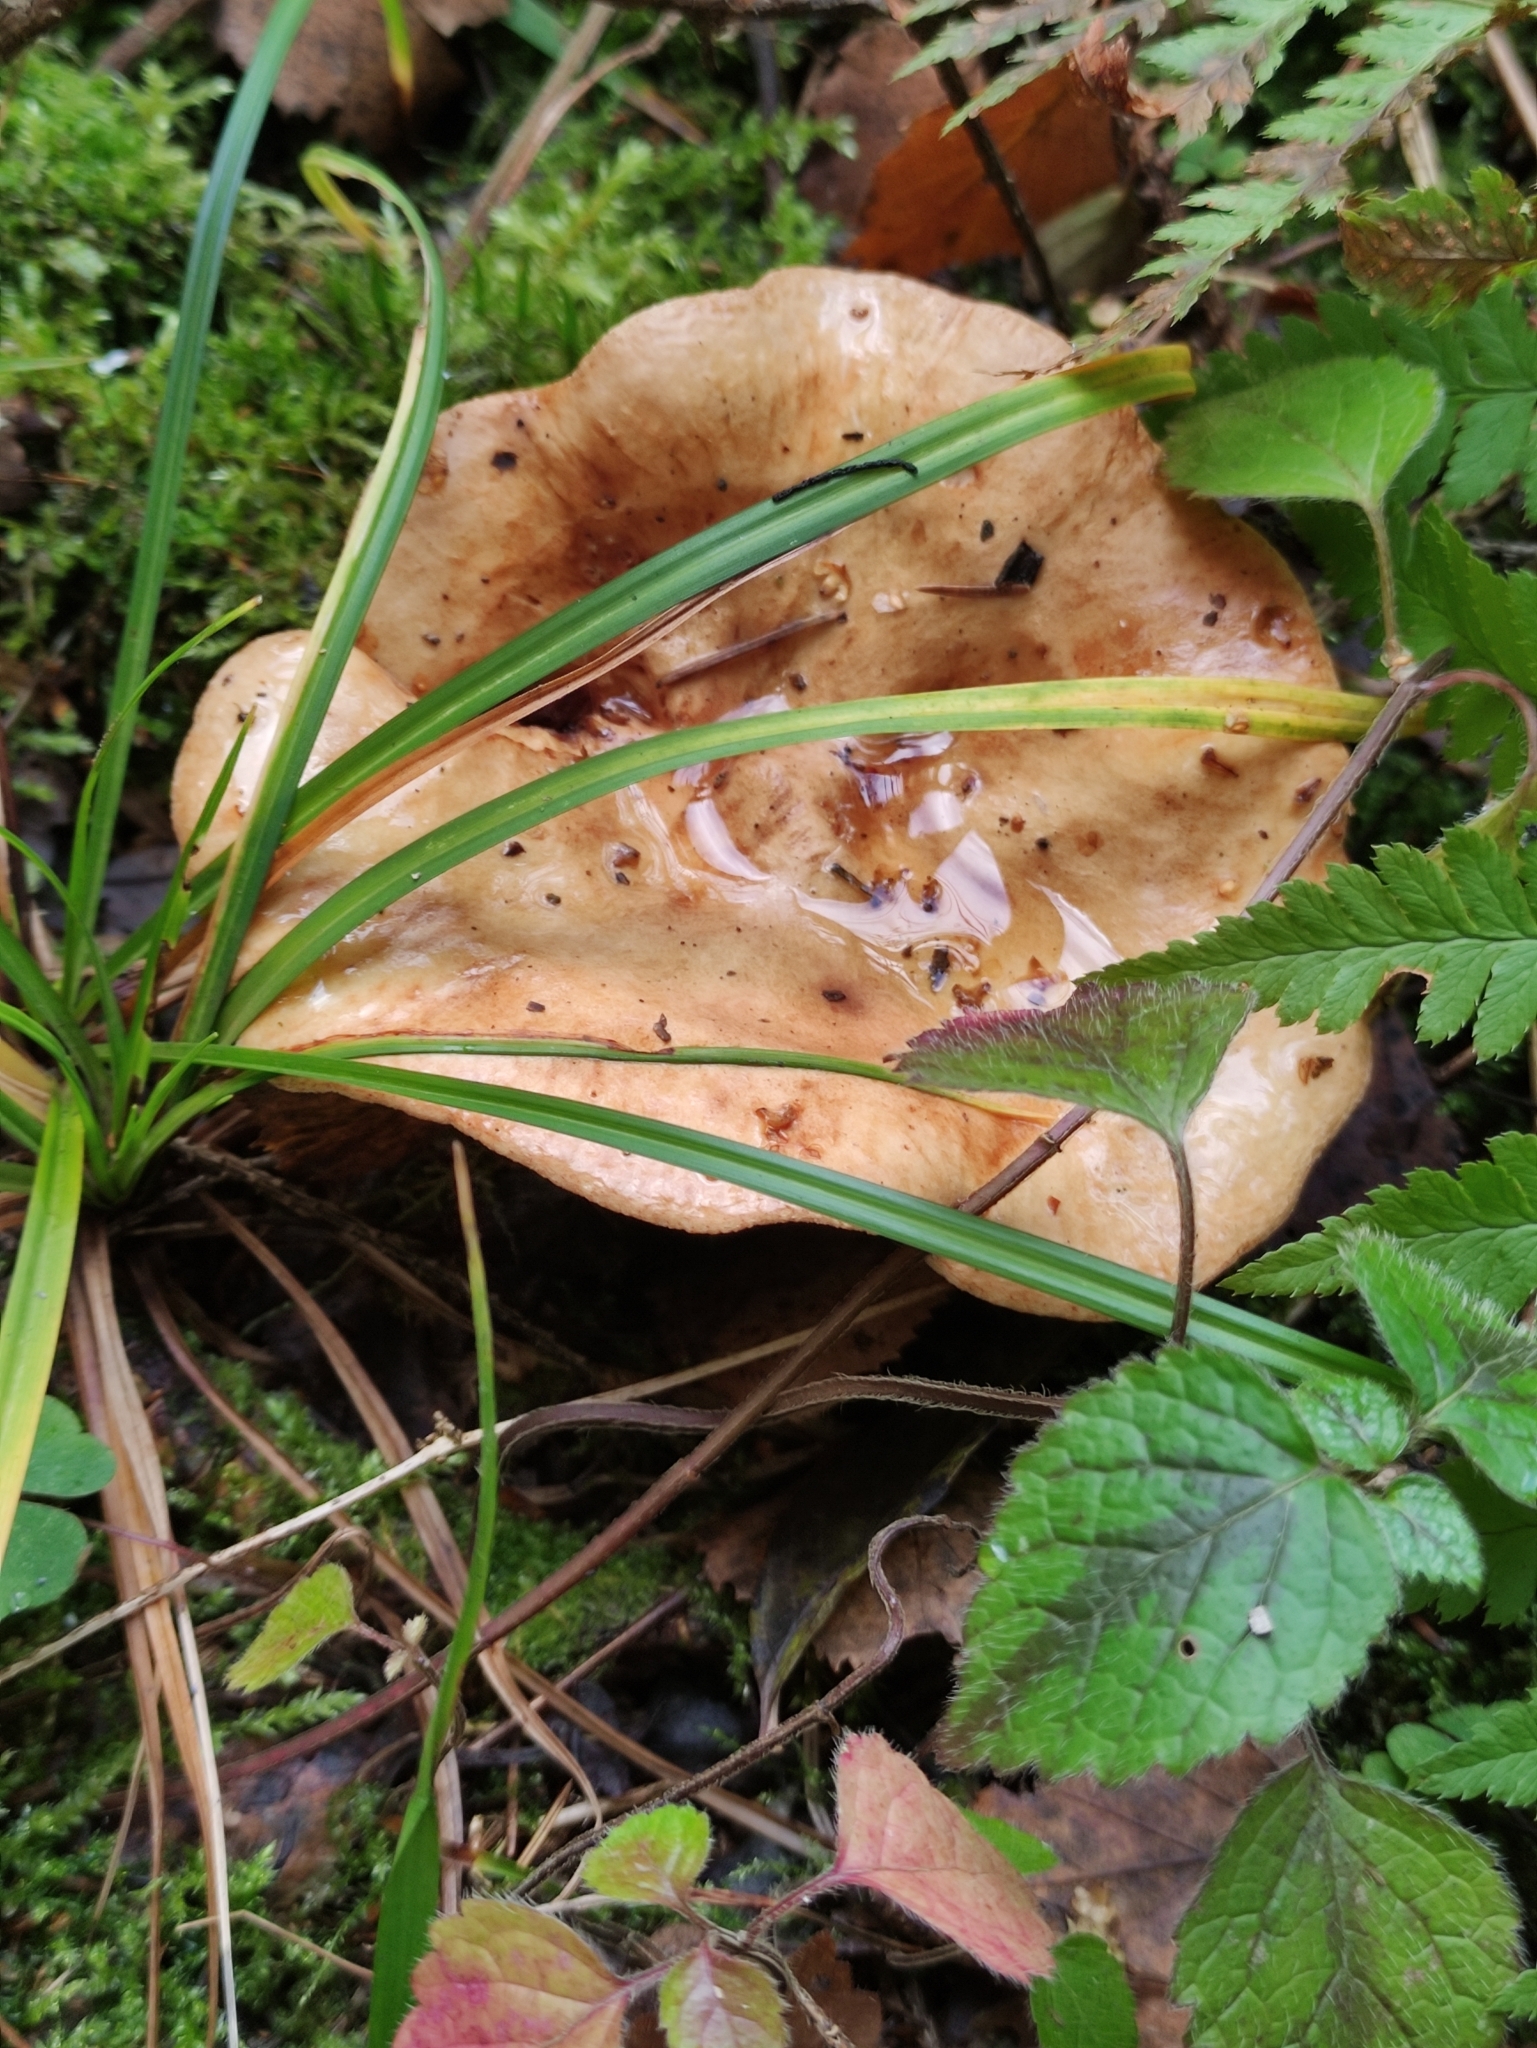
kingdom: Fungi
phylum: Basidiomycota
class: Agaricomycetes
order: Boletales
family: Paxillaceae
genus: Paxillus
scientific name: Paxillus involutus
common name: Brown roll rim
